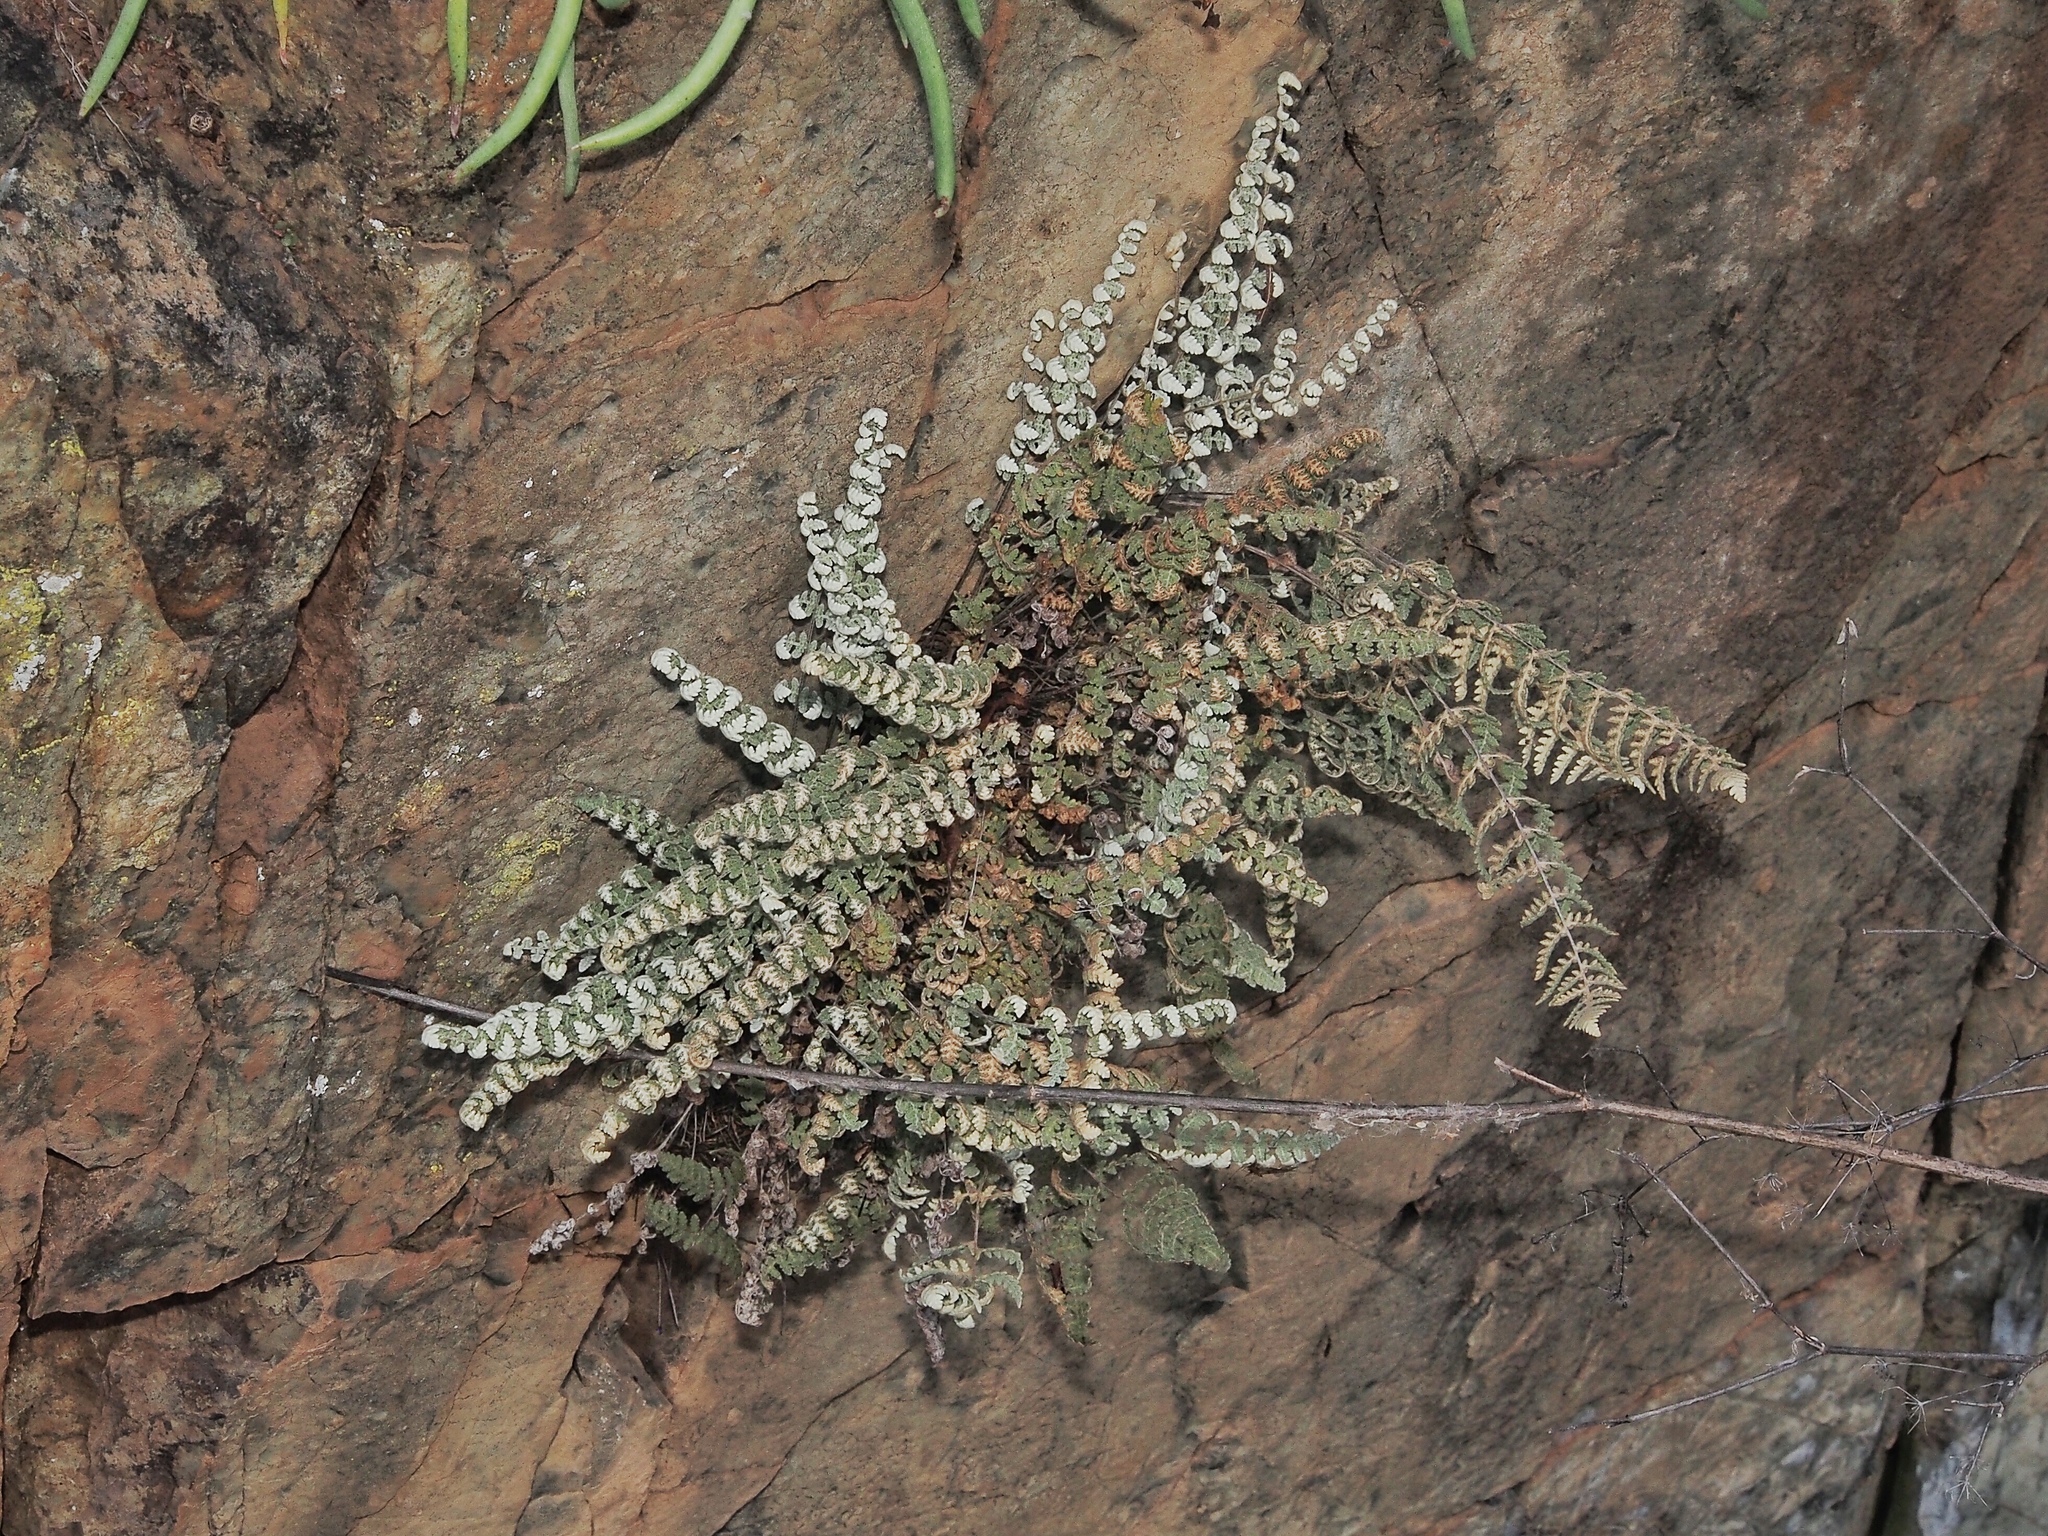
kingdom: Plantae
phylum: Tracheophyta
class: Polypodiopsida
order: Polypodiales
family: Pteridaceae
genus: Myriopteris
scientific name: Myriopteris newberryi
